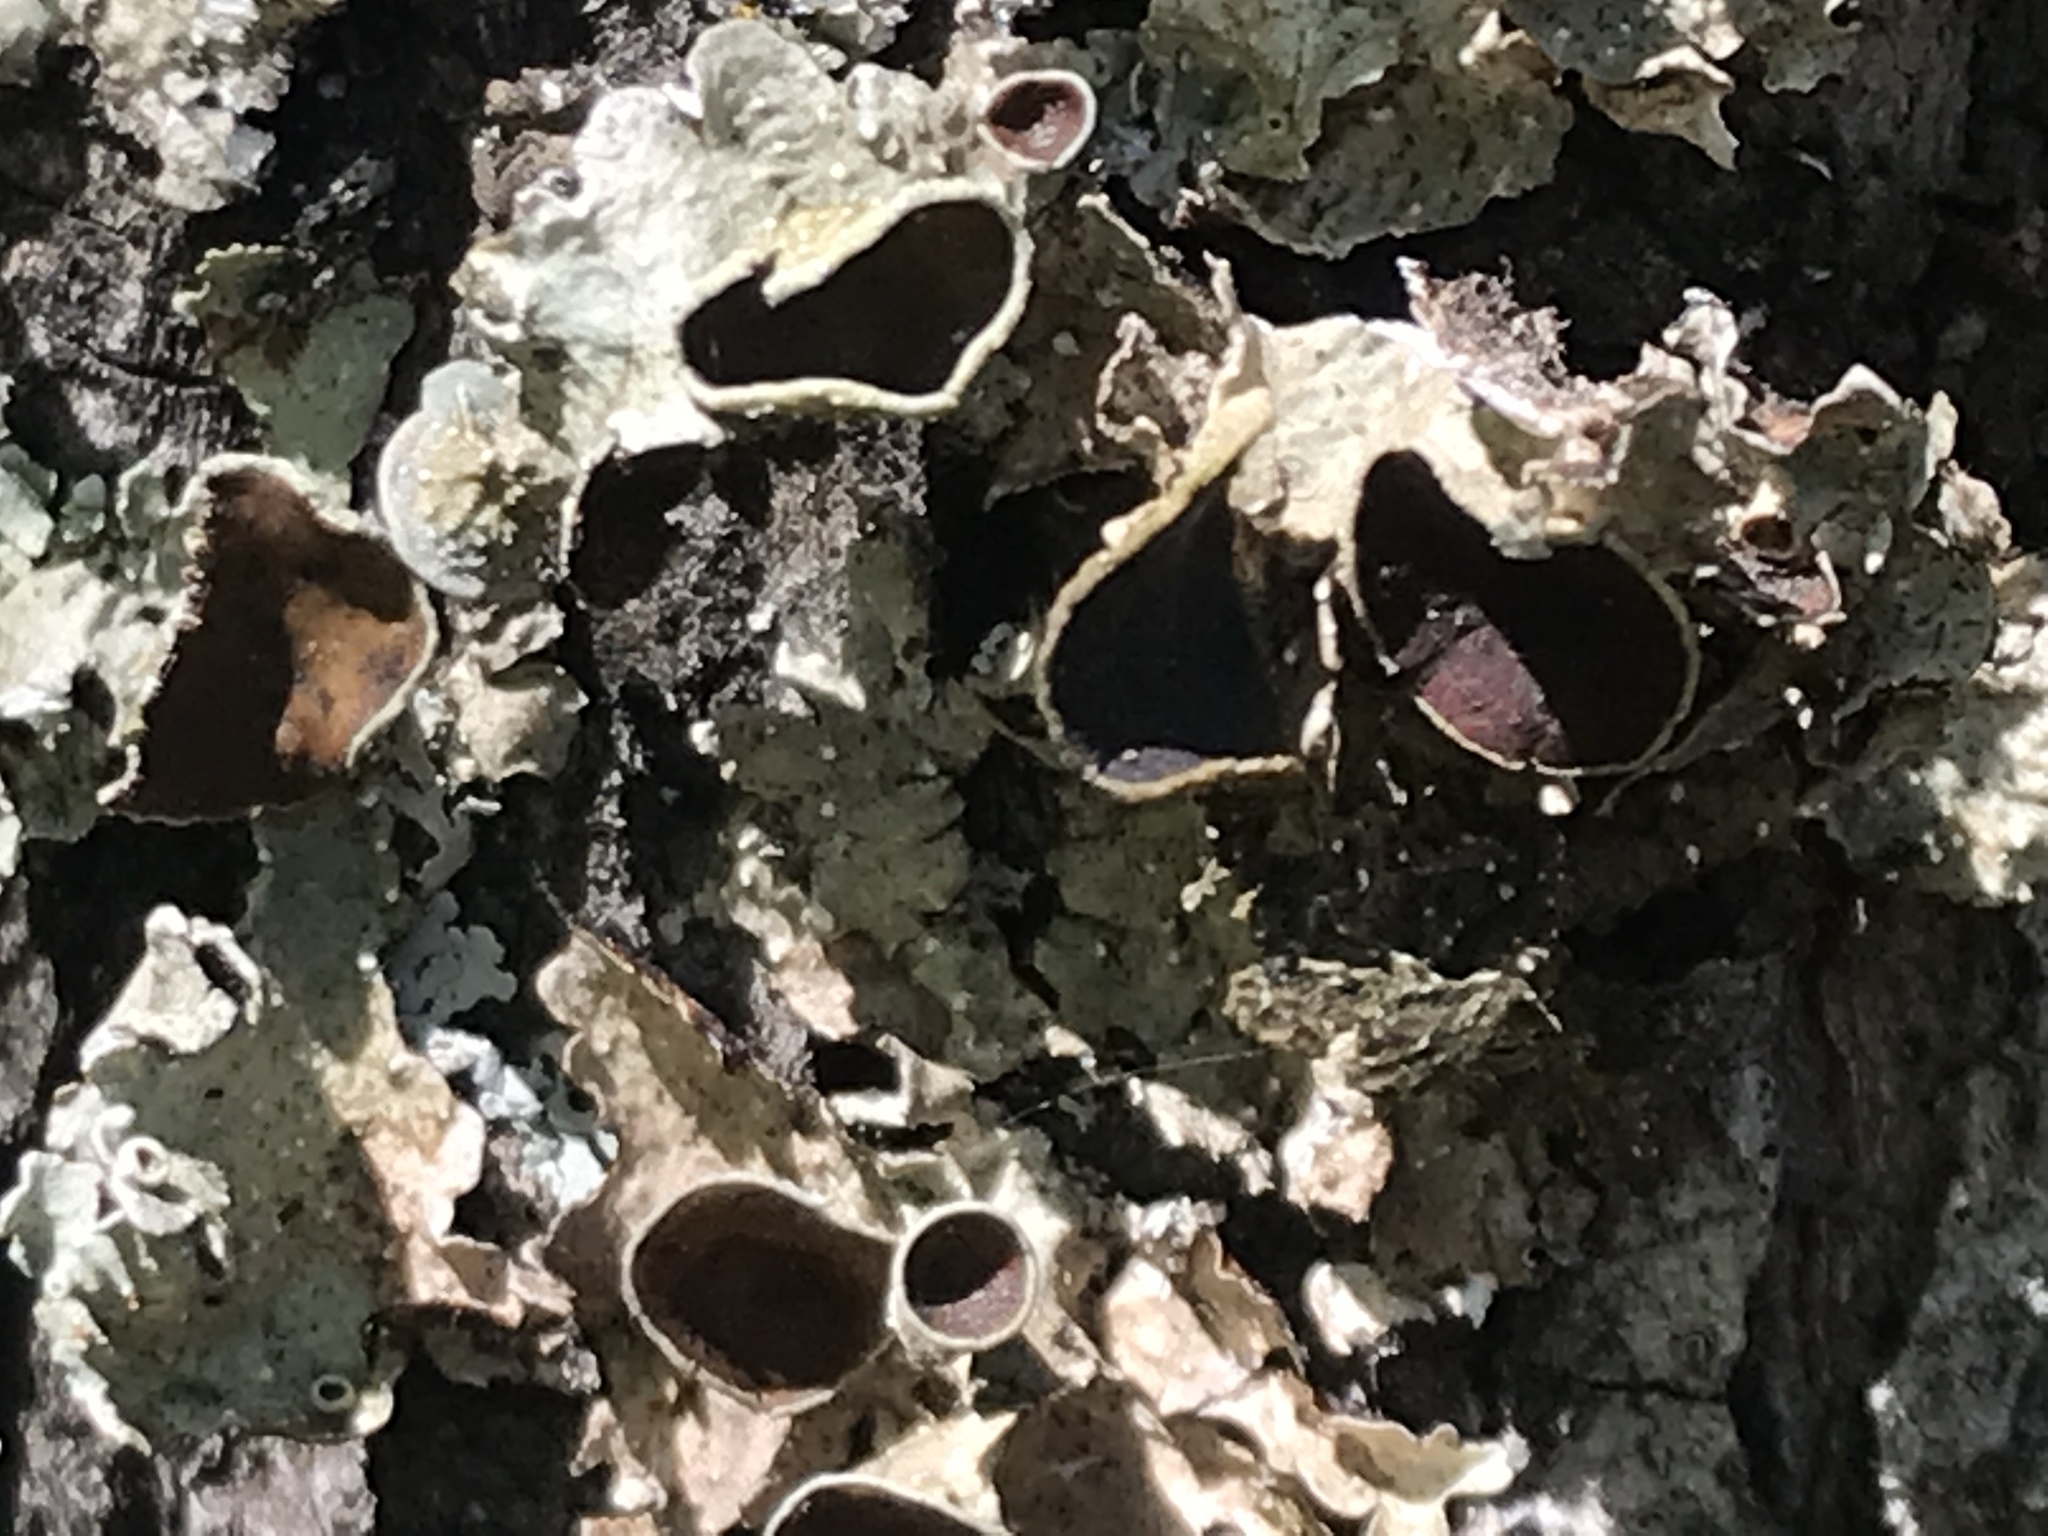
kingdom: Fungi
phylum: Ascomycota
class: Lecanoromycetes
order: Lecanorales
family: Parmeliaceae
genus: Punctelia
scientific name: Punctelia bolliana
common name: Eastern speckled shield lichen
